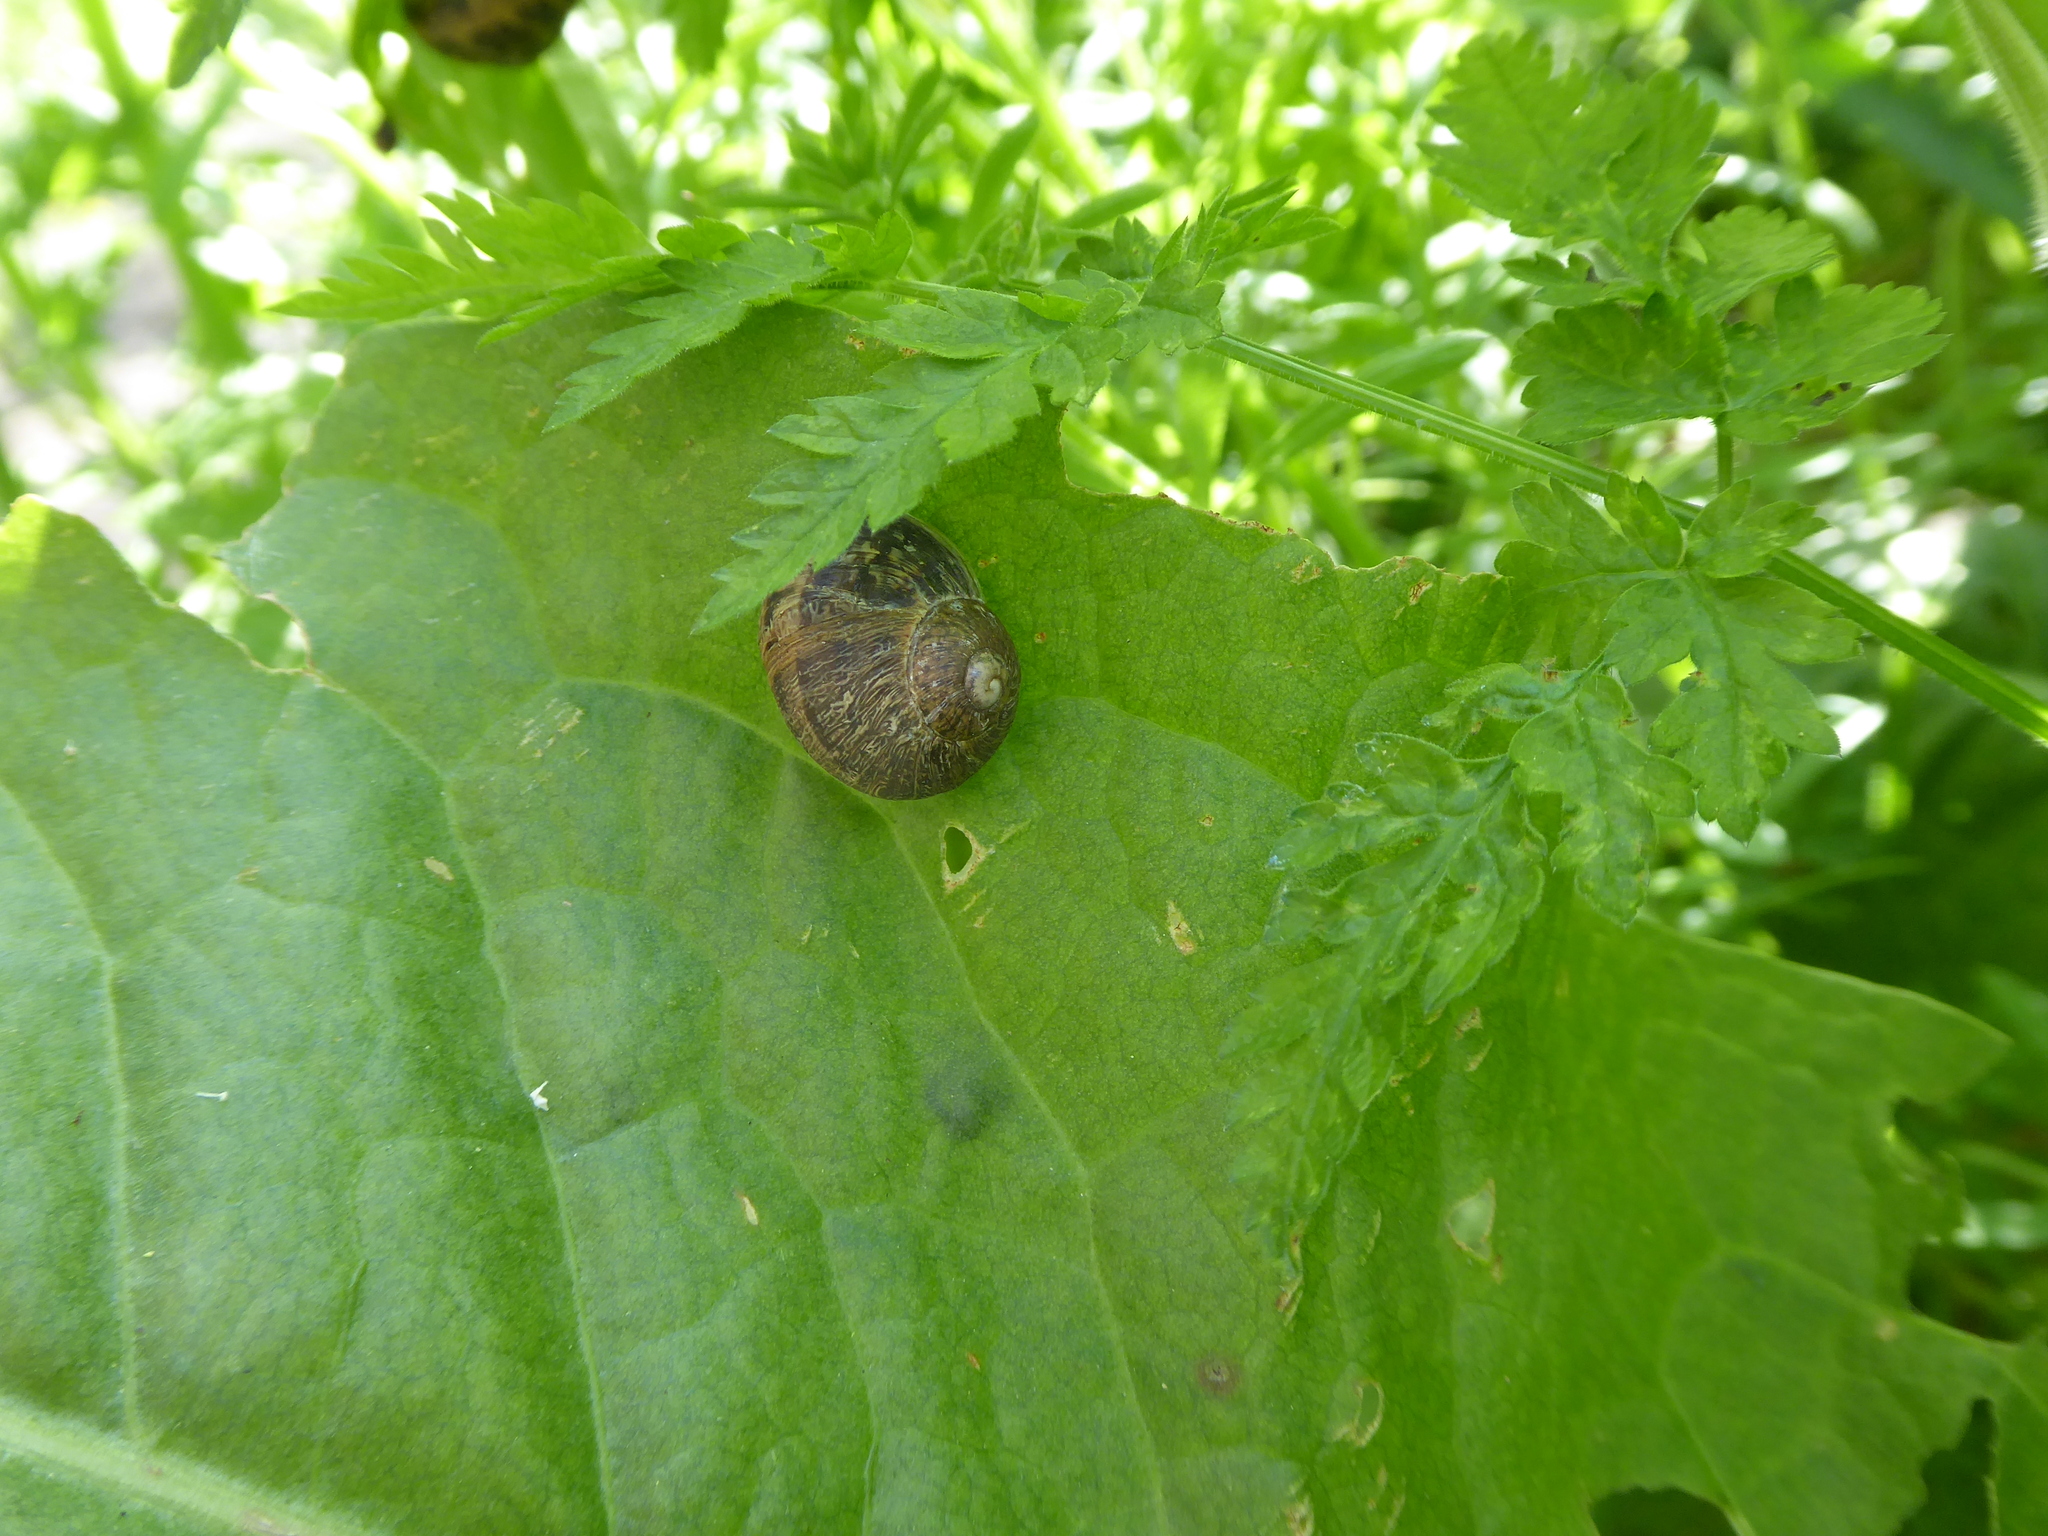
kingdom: Animalia
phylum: Mollusca
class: Gastropoda
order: Stylommatophora
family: Helicidae
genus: Cornu
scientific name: Cornu aspersum
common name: Brown garden snail
